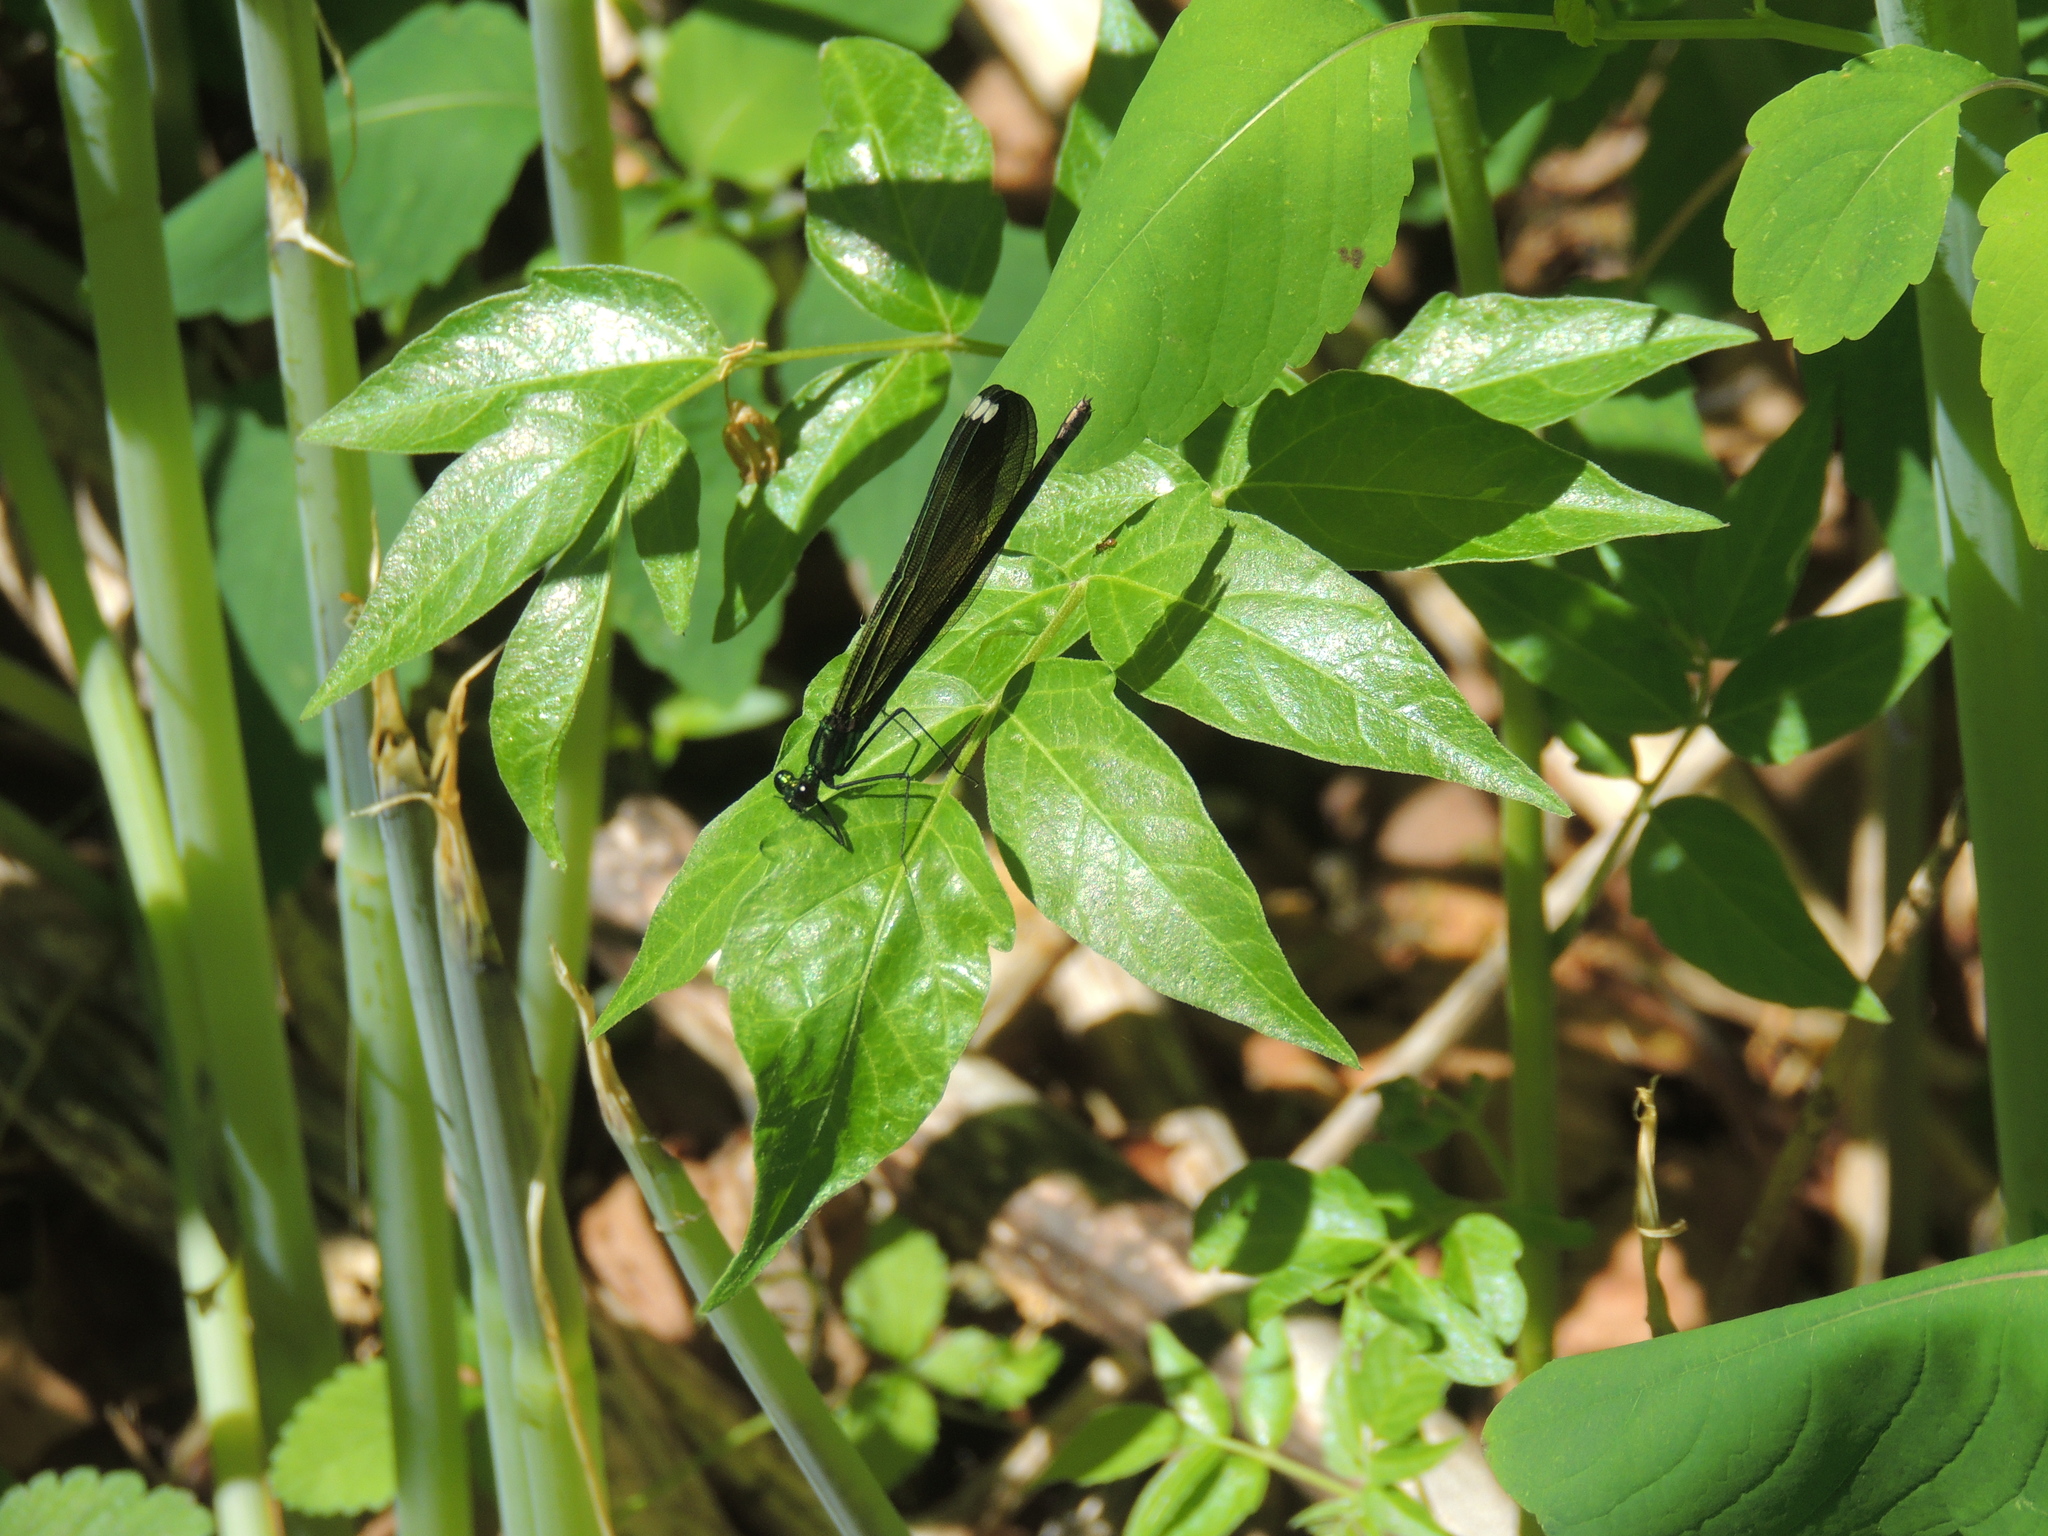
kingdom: Animalia
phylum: Arthropoda
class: Insecta
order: Odonata
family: Calopterygidae
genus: Calopteryx
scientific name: Calopteryx maculata
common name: Ebony jewelwing
